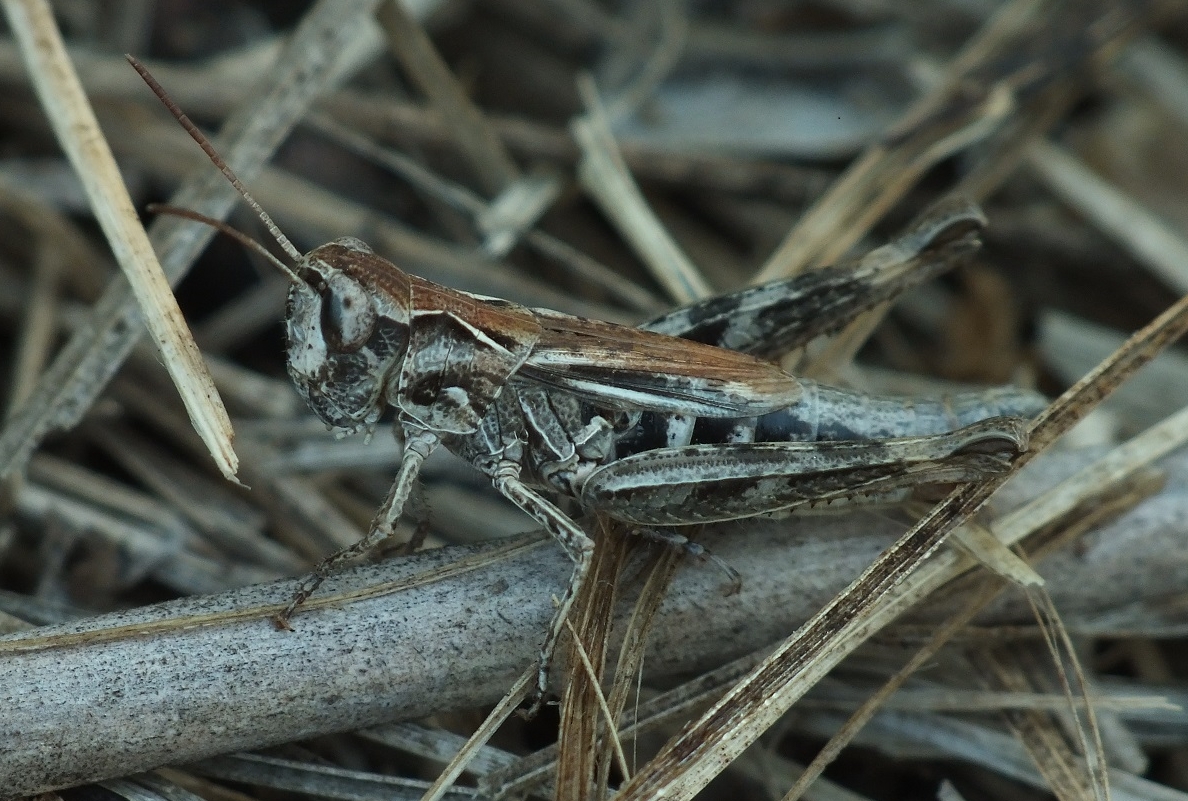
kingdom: Animalia
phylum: Arthropoda
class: Insecta
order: Orthoptera
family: Acrididae
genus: Chorthippus
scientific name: Chorthippus macrocerus
